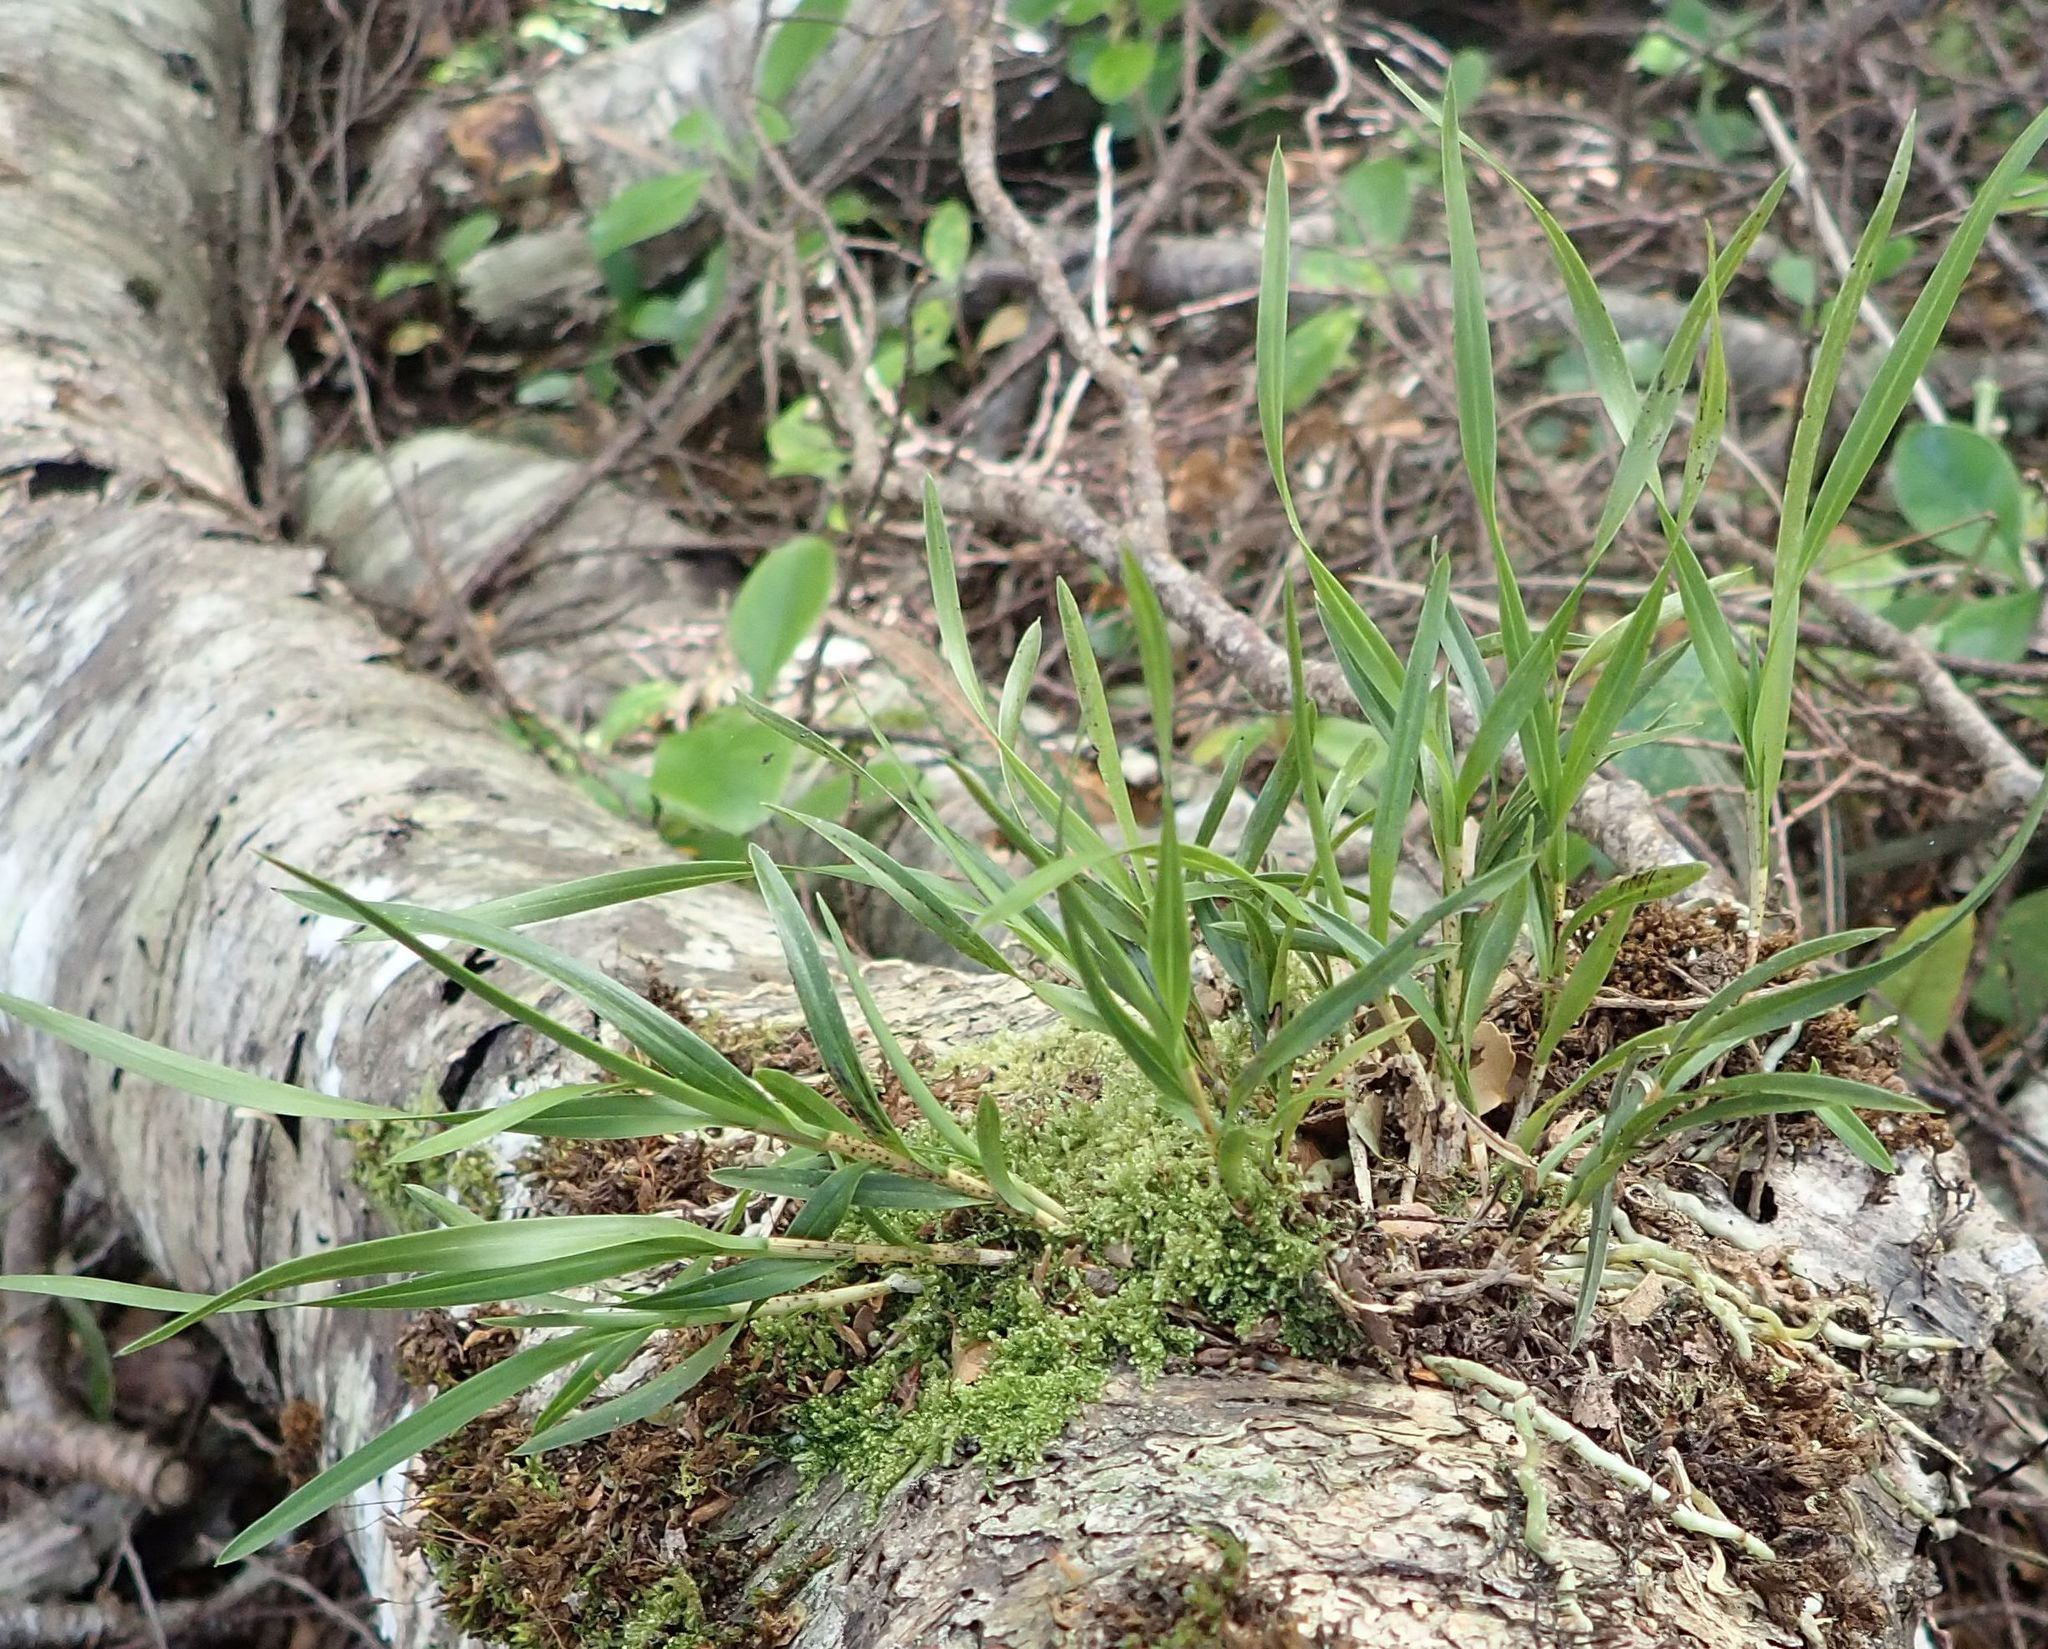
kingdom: Plantae
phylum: Tracheophyta
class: Liliopsida
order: Asparagales
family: Orchidaceae
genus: Earina
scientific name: Earina mucronata
